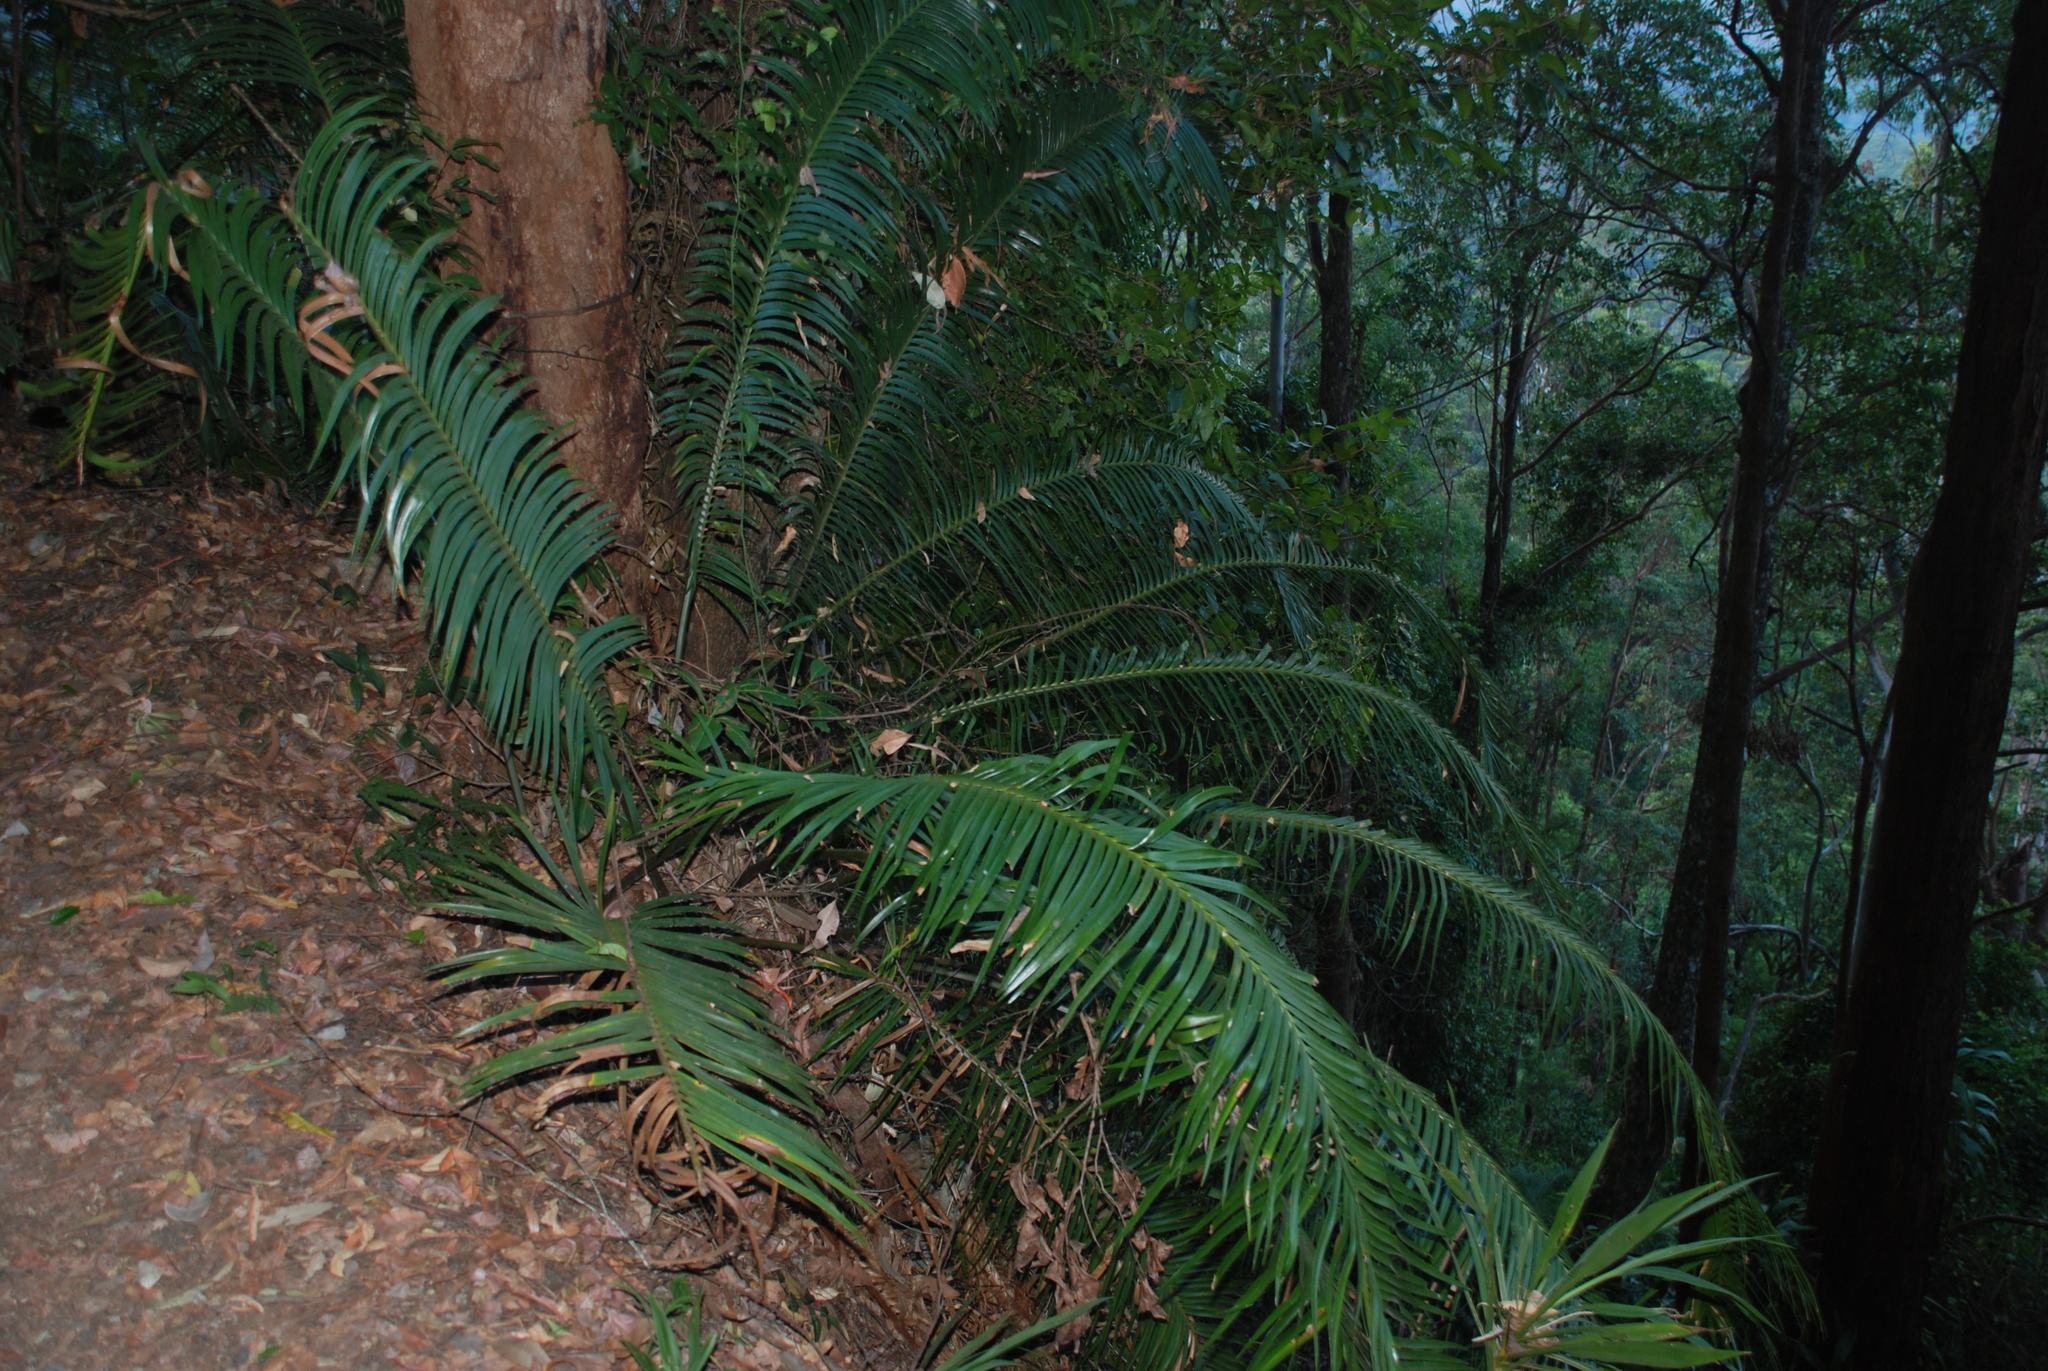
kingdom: Plantae
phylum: Tracheophyta
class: Cycadopsida
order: Cycadales
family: Zamiaceae
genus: Lepidozamia
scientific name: Lepidozamia peroffskyana
